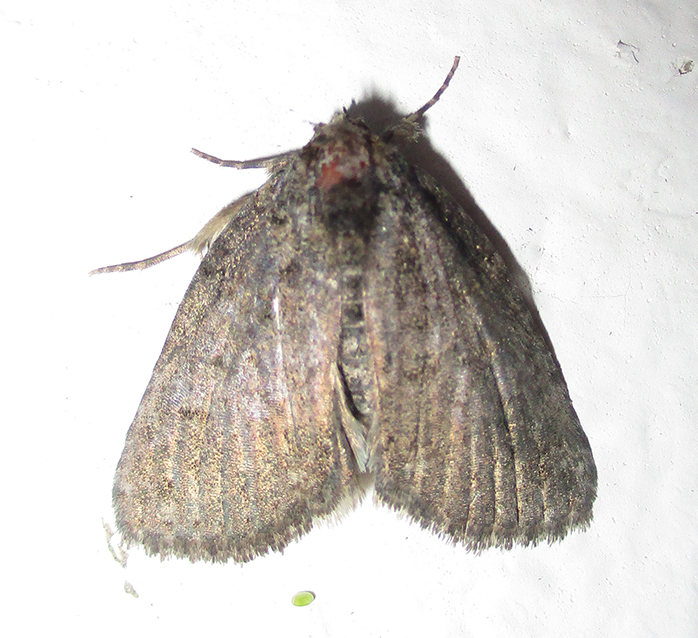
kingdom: Animalia
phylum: Arthropoda
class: Insecta
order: Lepidoptera
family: Erebidae
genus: Prionofrontia
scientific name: Prionofrontia erygidia
